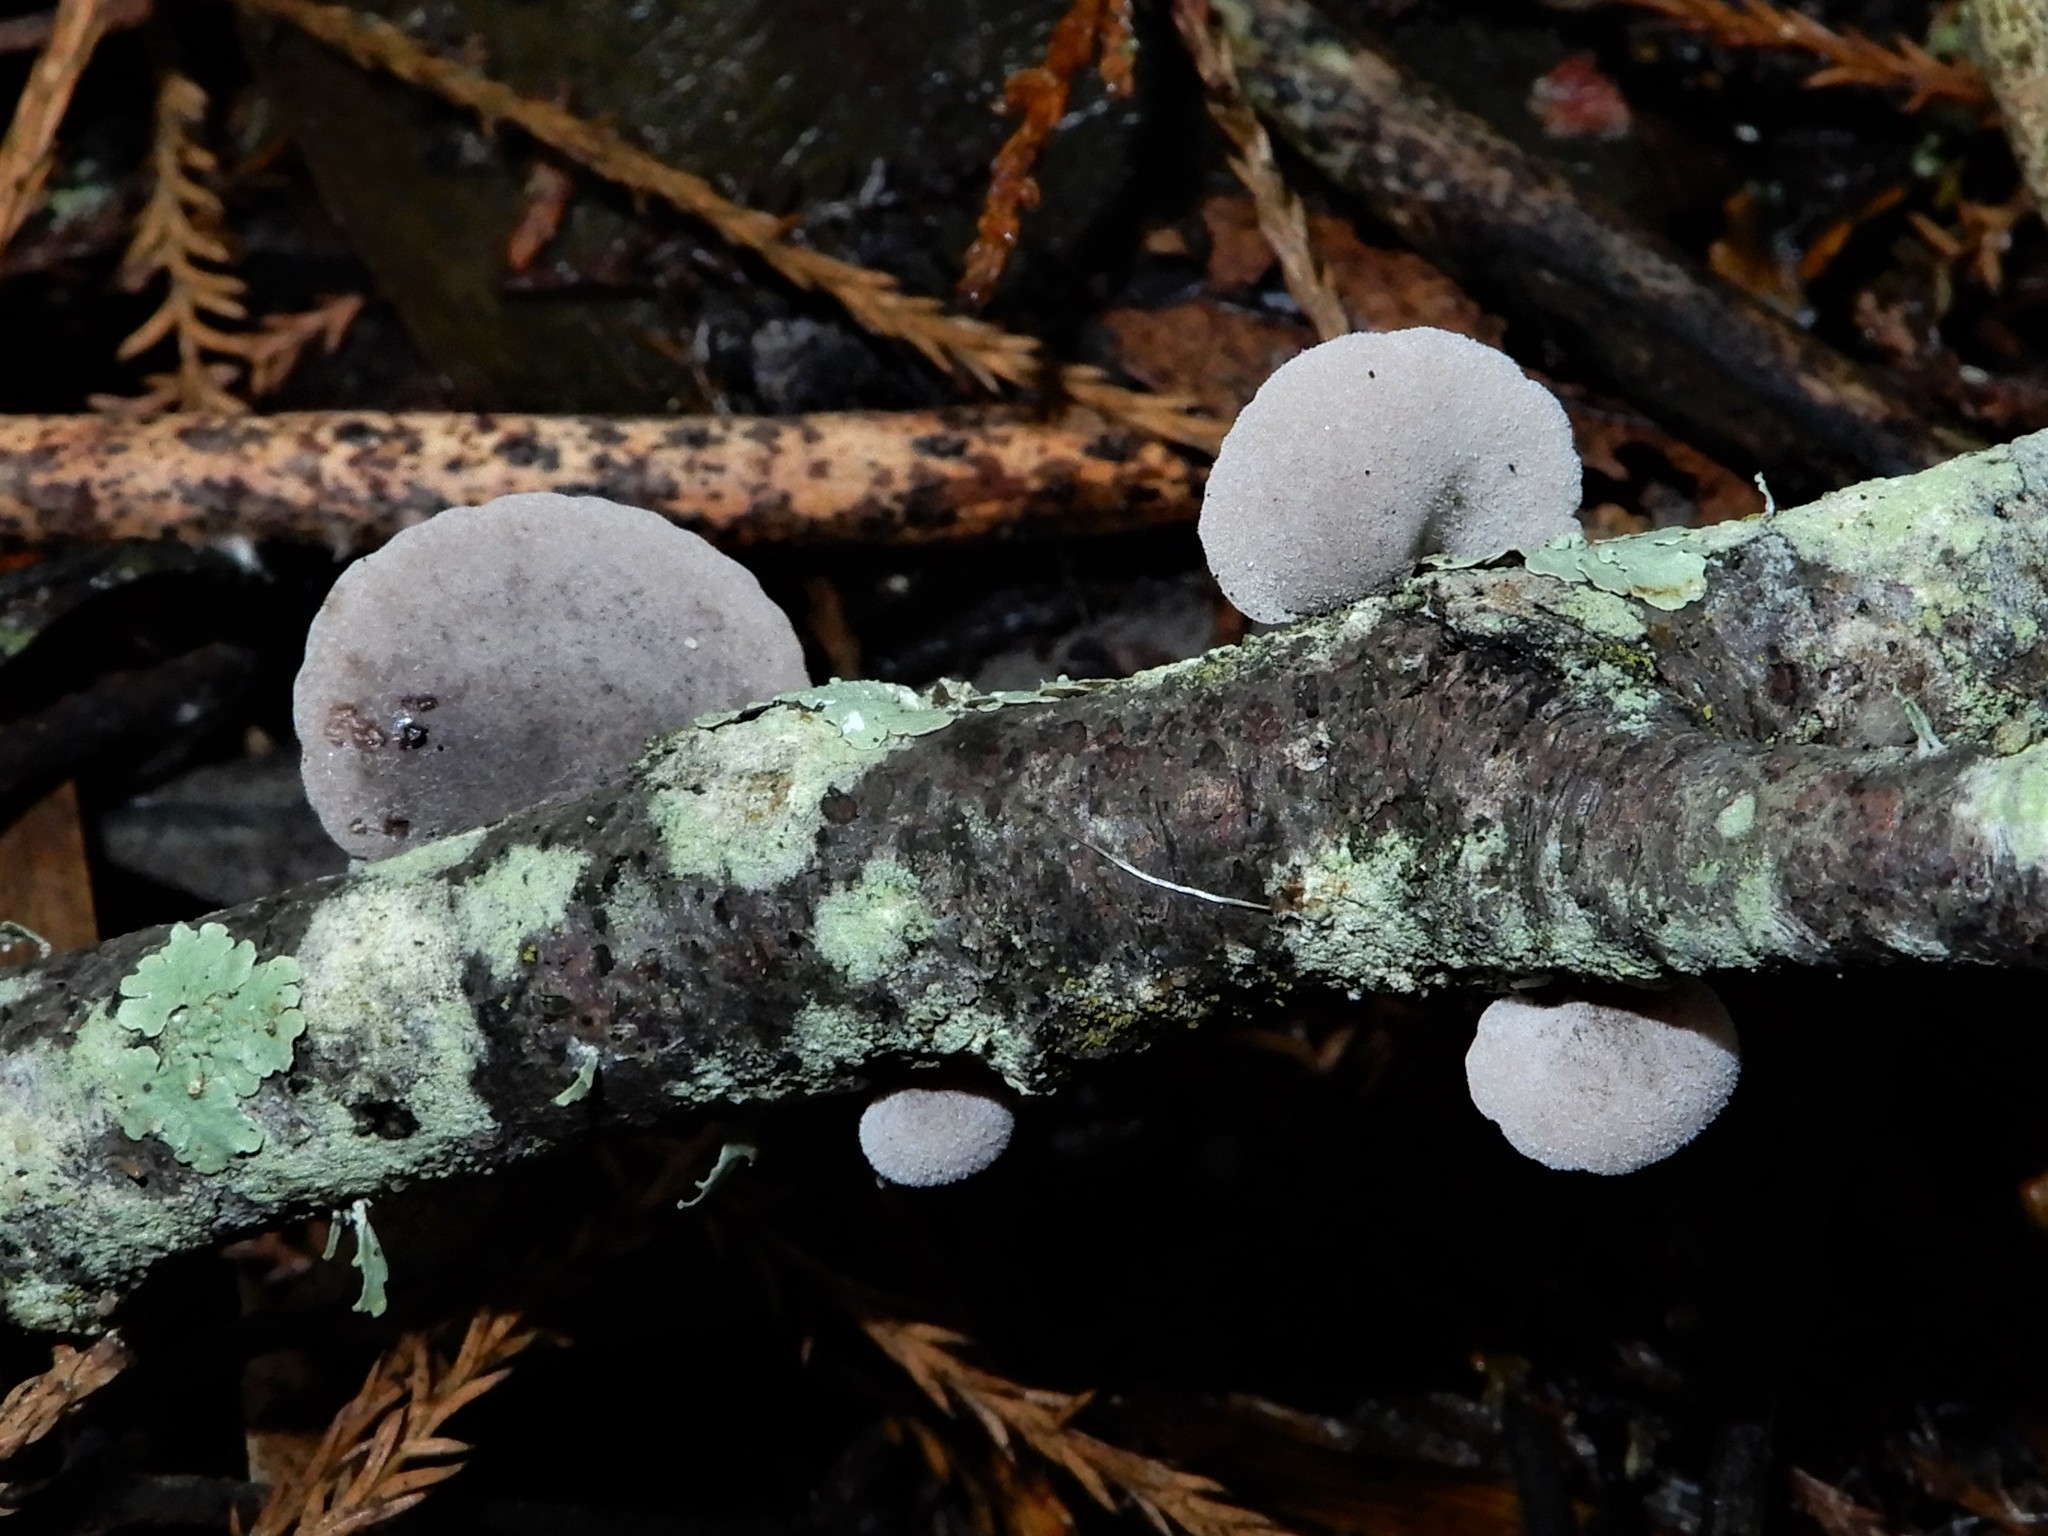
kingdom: Fungi
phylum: Basidiomycota
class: Agaricomycetes
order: Agaricales
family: Pleurotaceae
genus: Resupinatus
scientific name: Resupinatus vinosolividus
